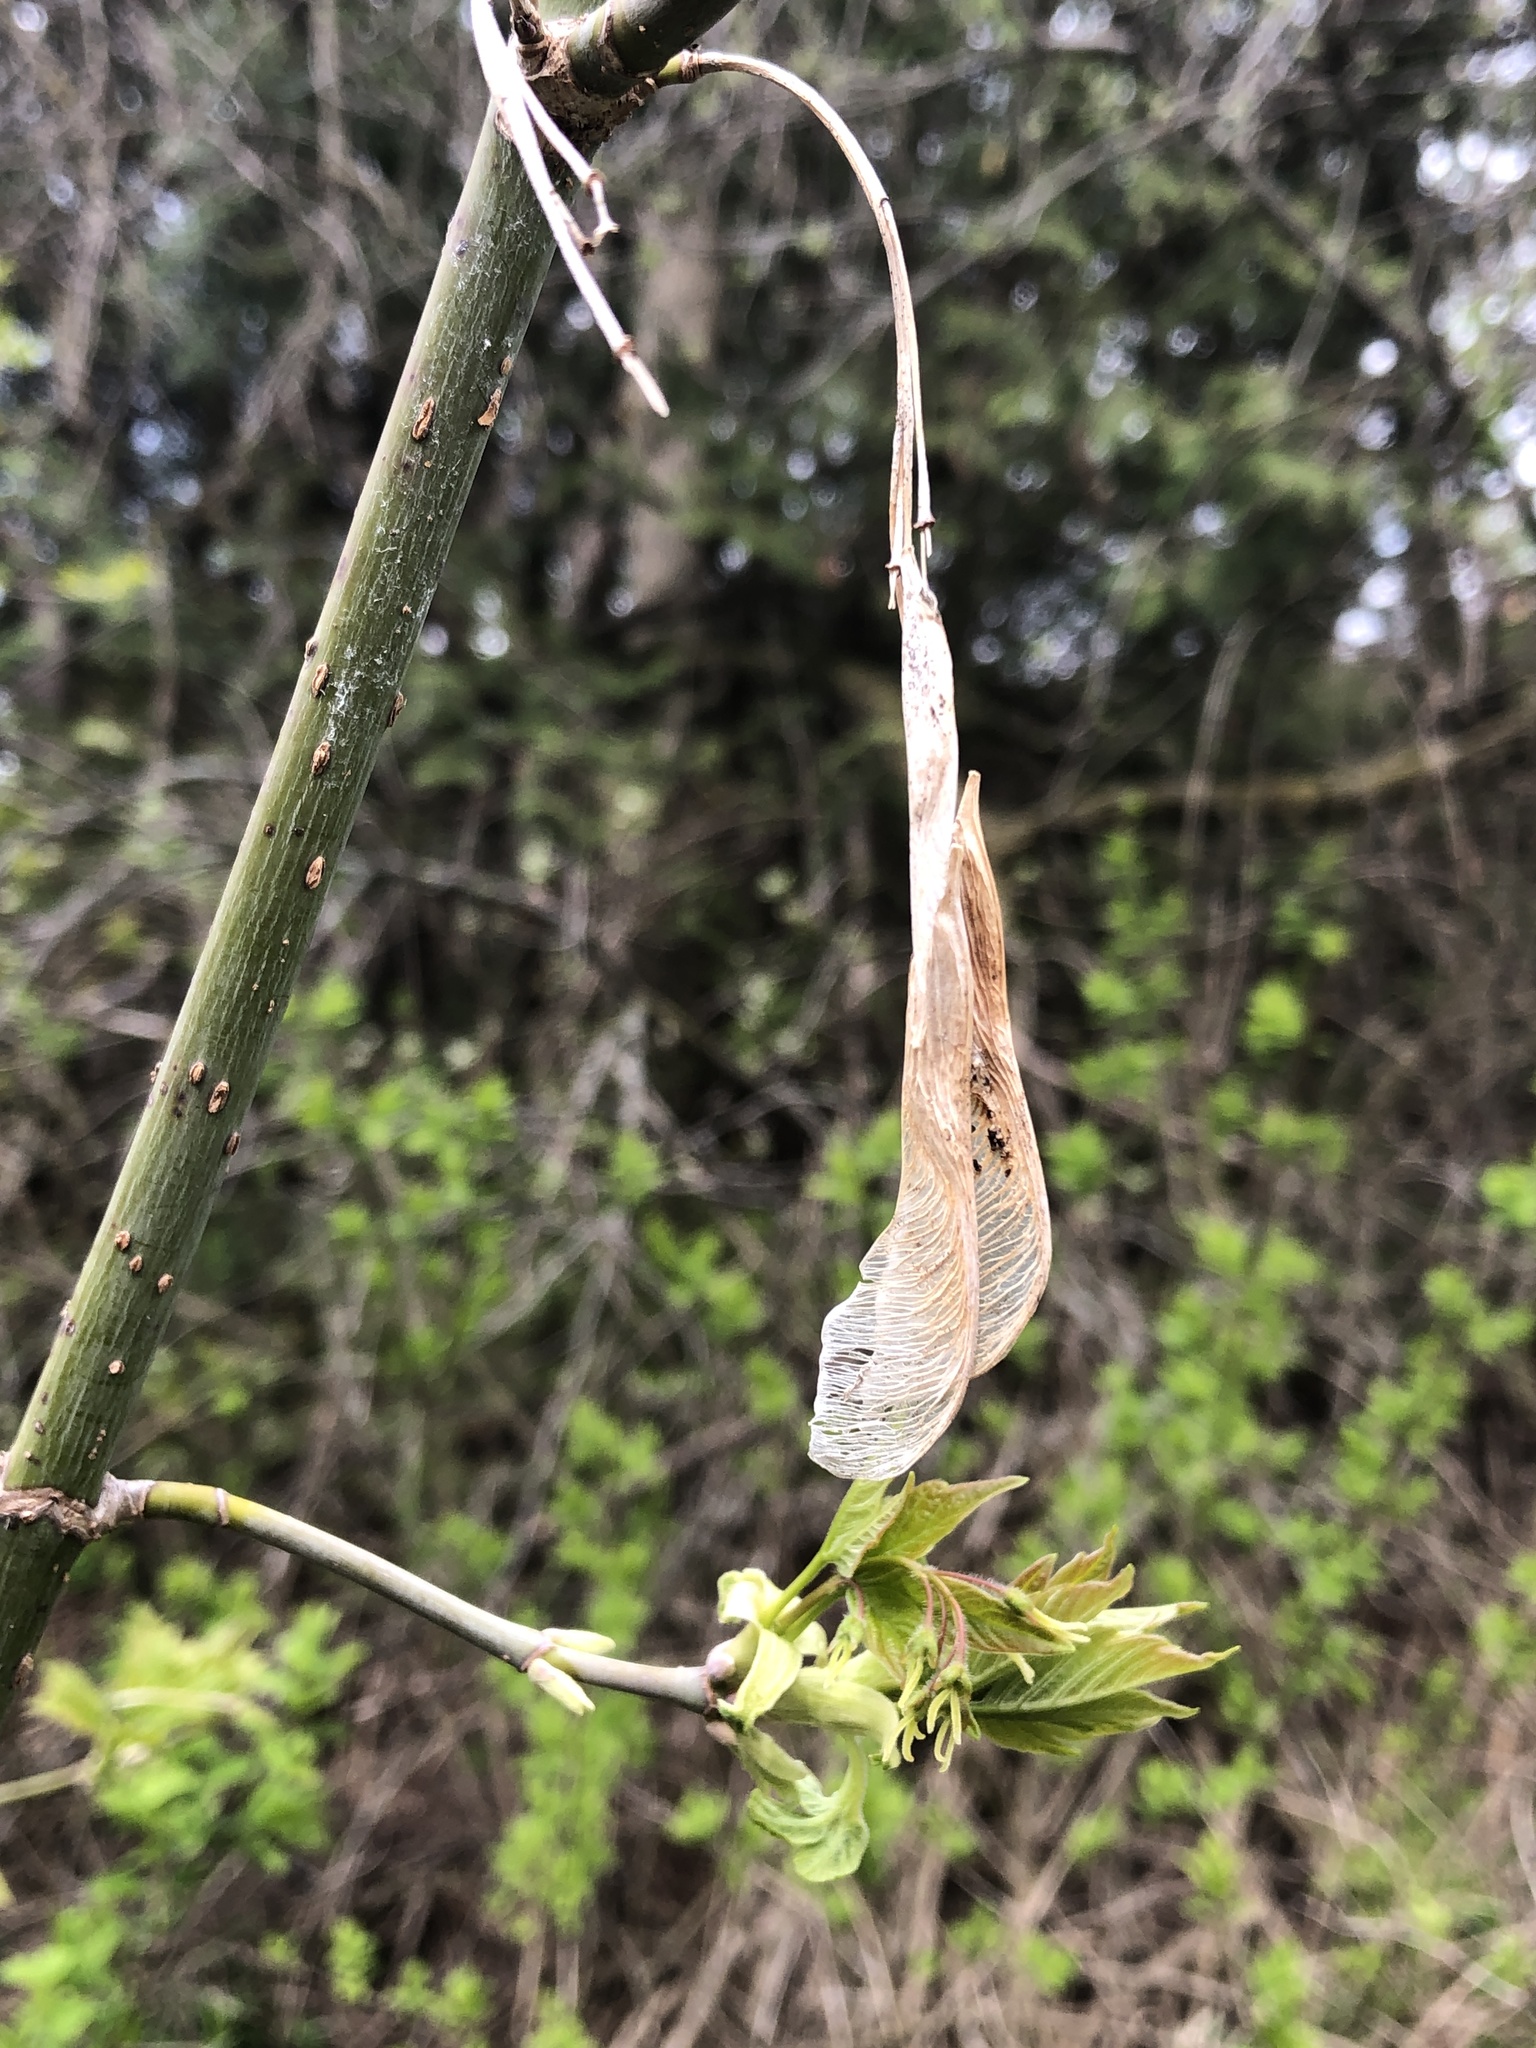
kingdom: Plantae
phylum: Tracheophyta
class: Magnoliopsida
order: Sapindales
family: Sapindaceae
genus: Acer
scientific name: Acer negundo
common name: Ashleaf maple
